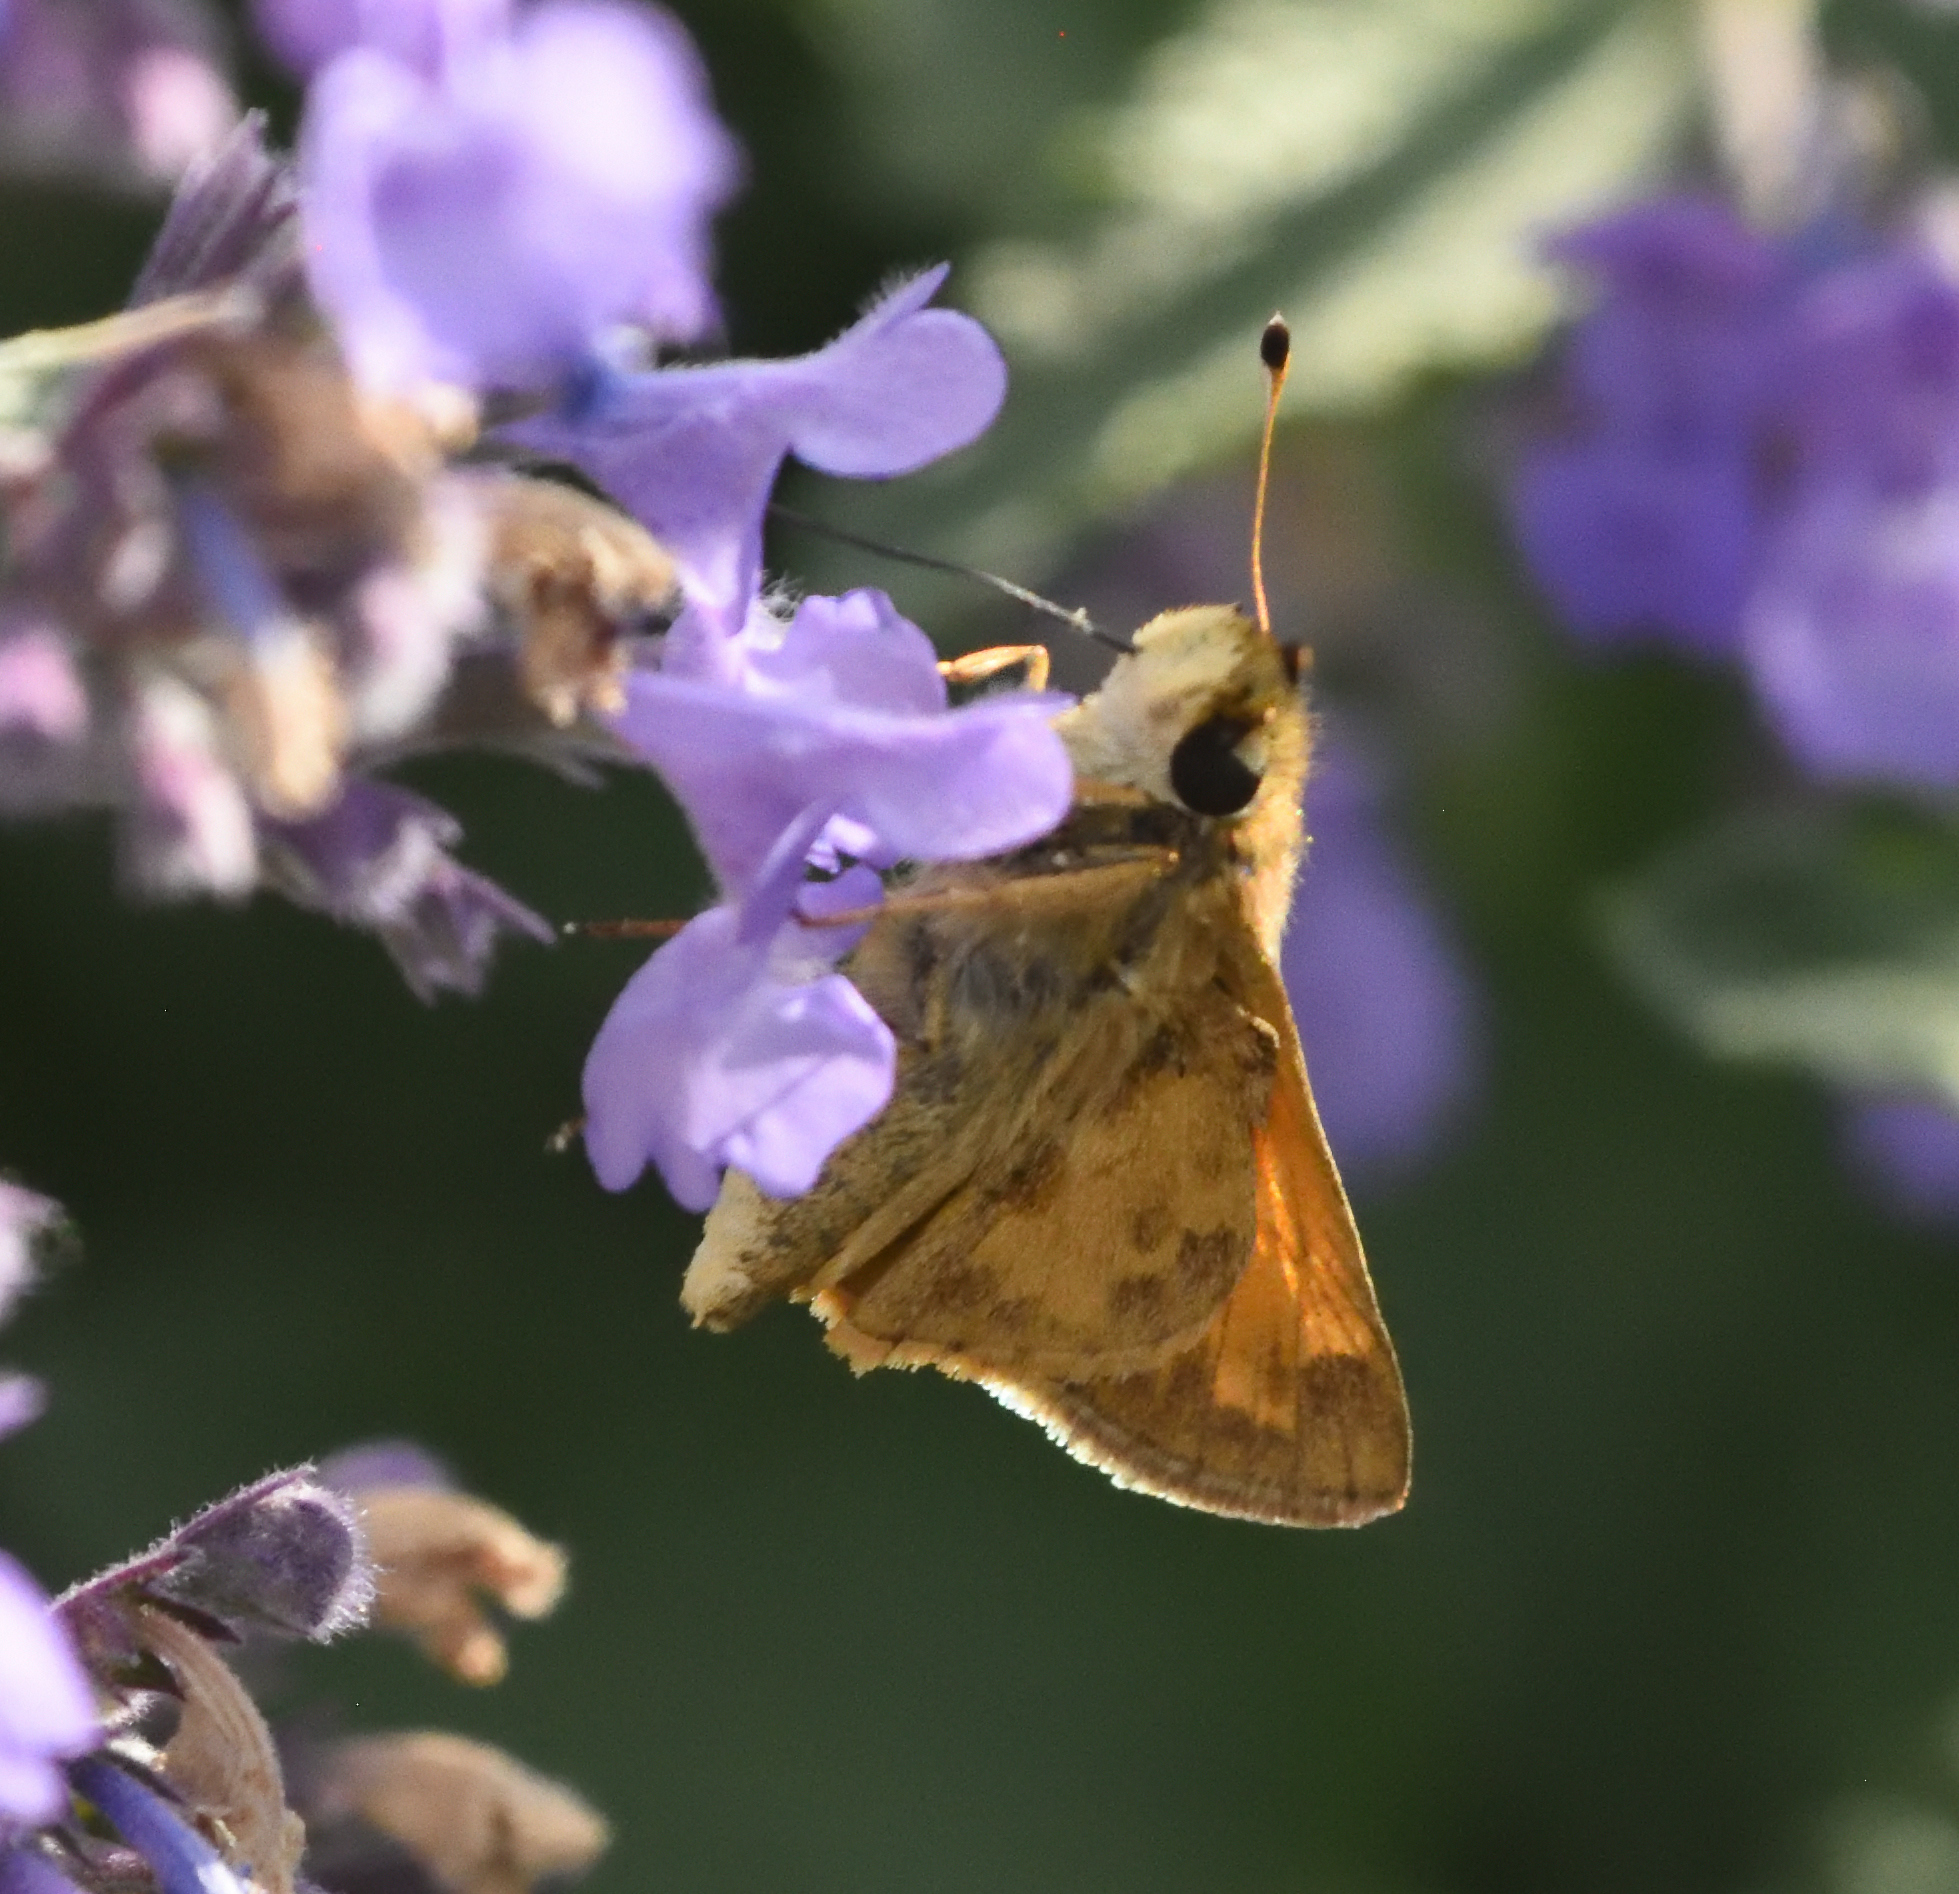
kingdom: Animalia
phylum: Arthropoda
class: Insecta
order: Lepidoptera
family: Hesperiidae
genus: Atalopedes
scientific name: Atalopedes
